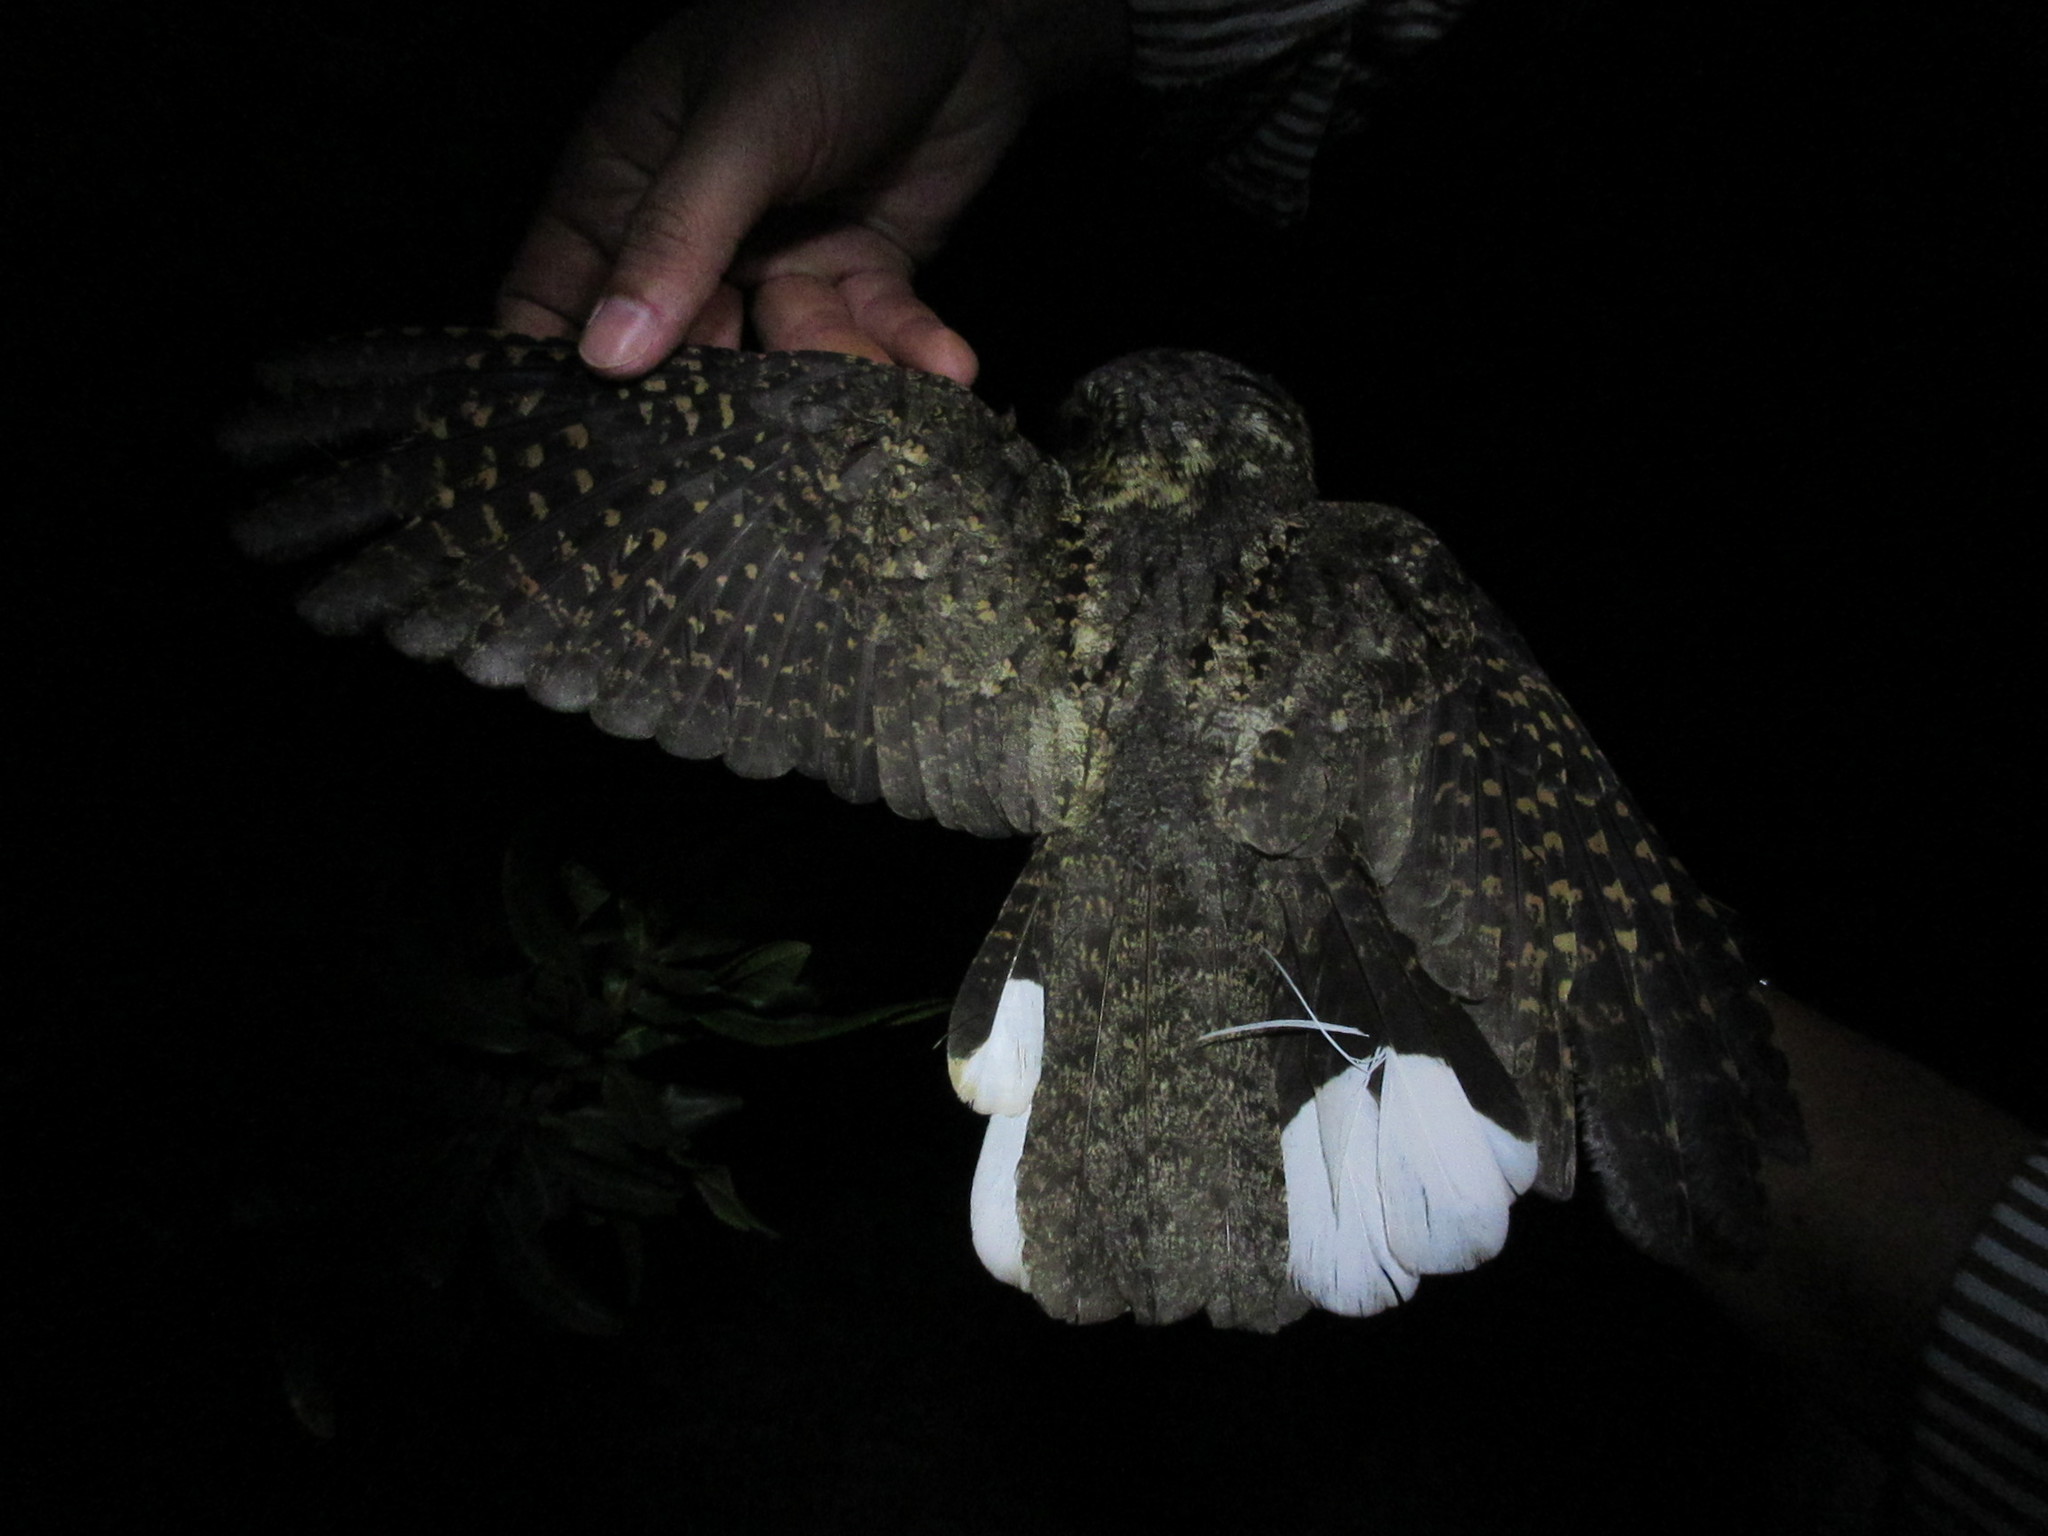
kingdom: Animalia
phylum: Chordata
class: Aves
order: Caprimulgiformes
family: Caprimulgidae
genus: Antrostomus
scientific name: Antrostomus arizonae
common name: Mexican whip-poor-will
